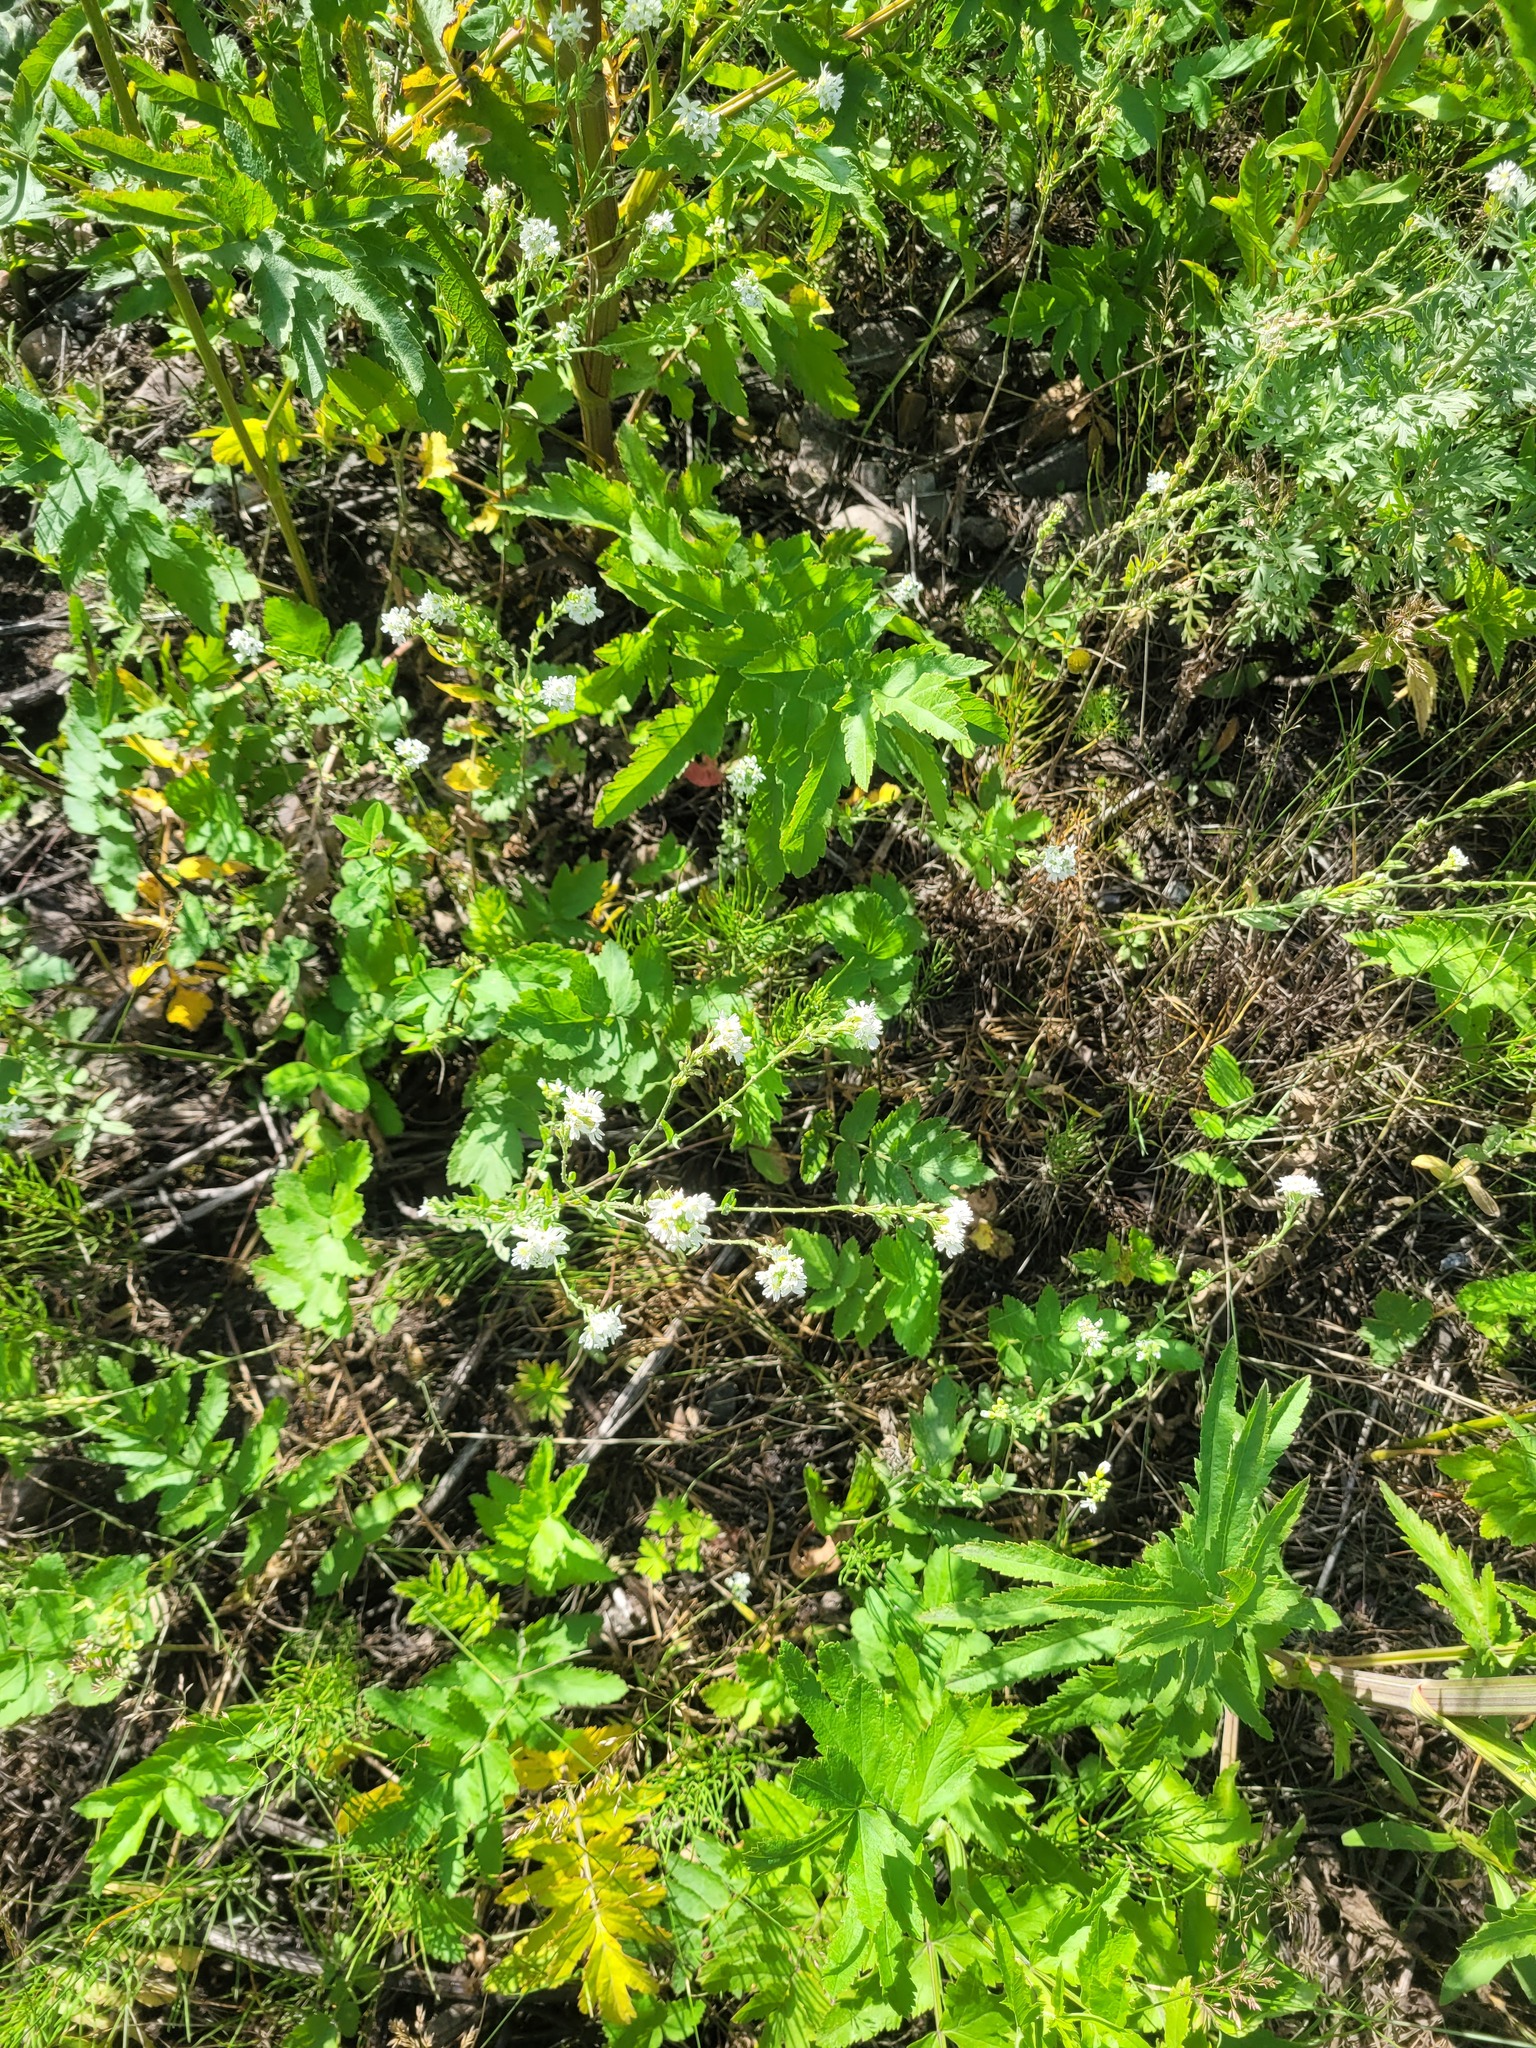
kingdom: Plantae
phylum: Tracheophyta
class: Magnoliopsida
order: Brassicales
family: Brassicaceae
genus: Berteroa
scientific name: Berteroa incana
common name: Hoary alison
